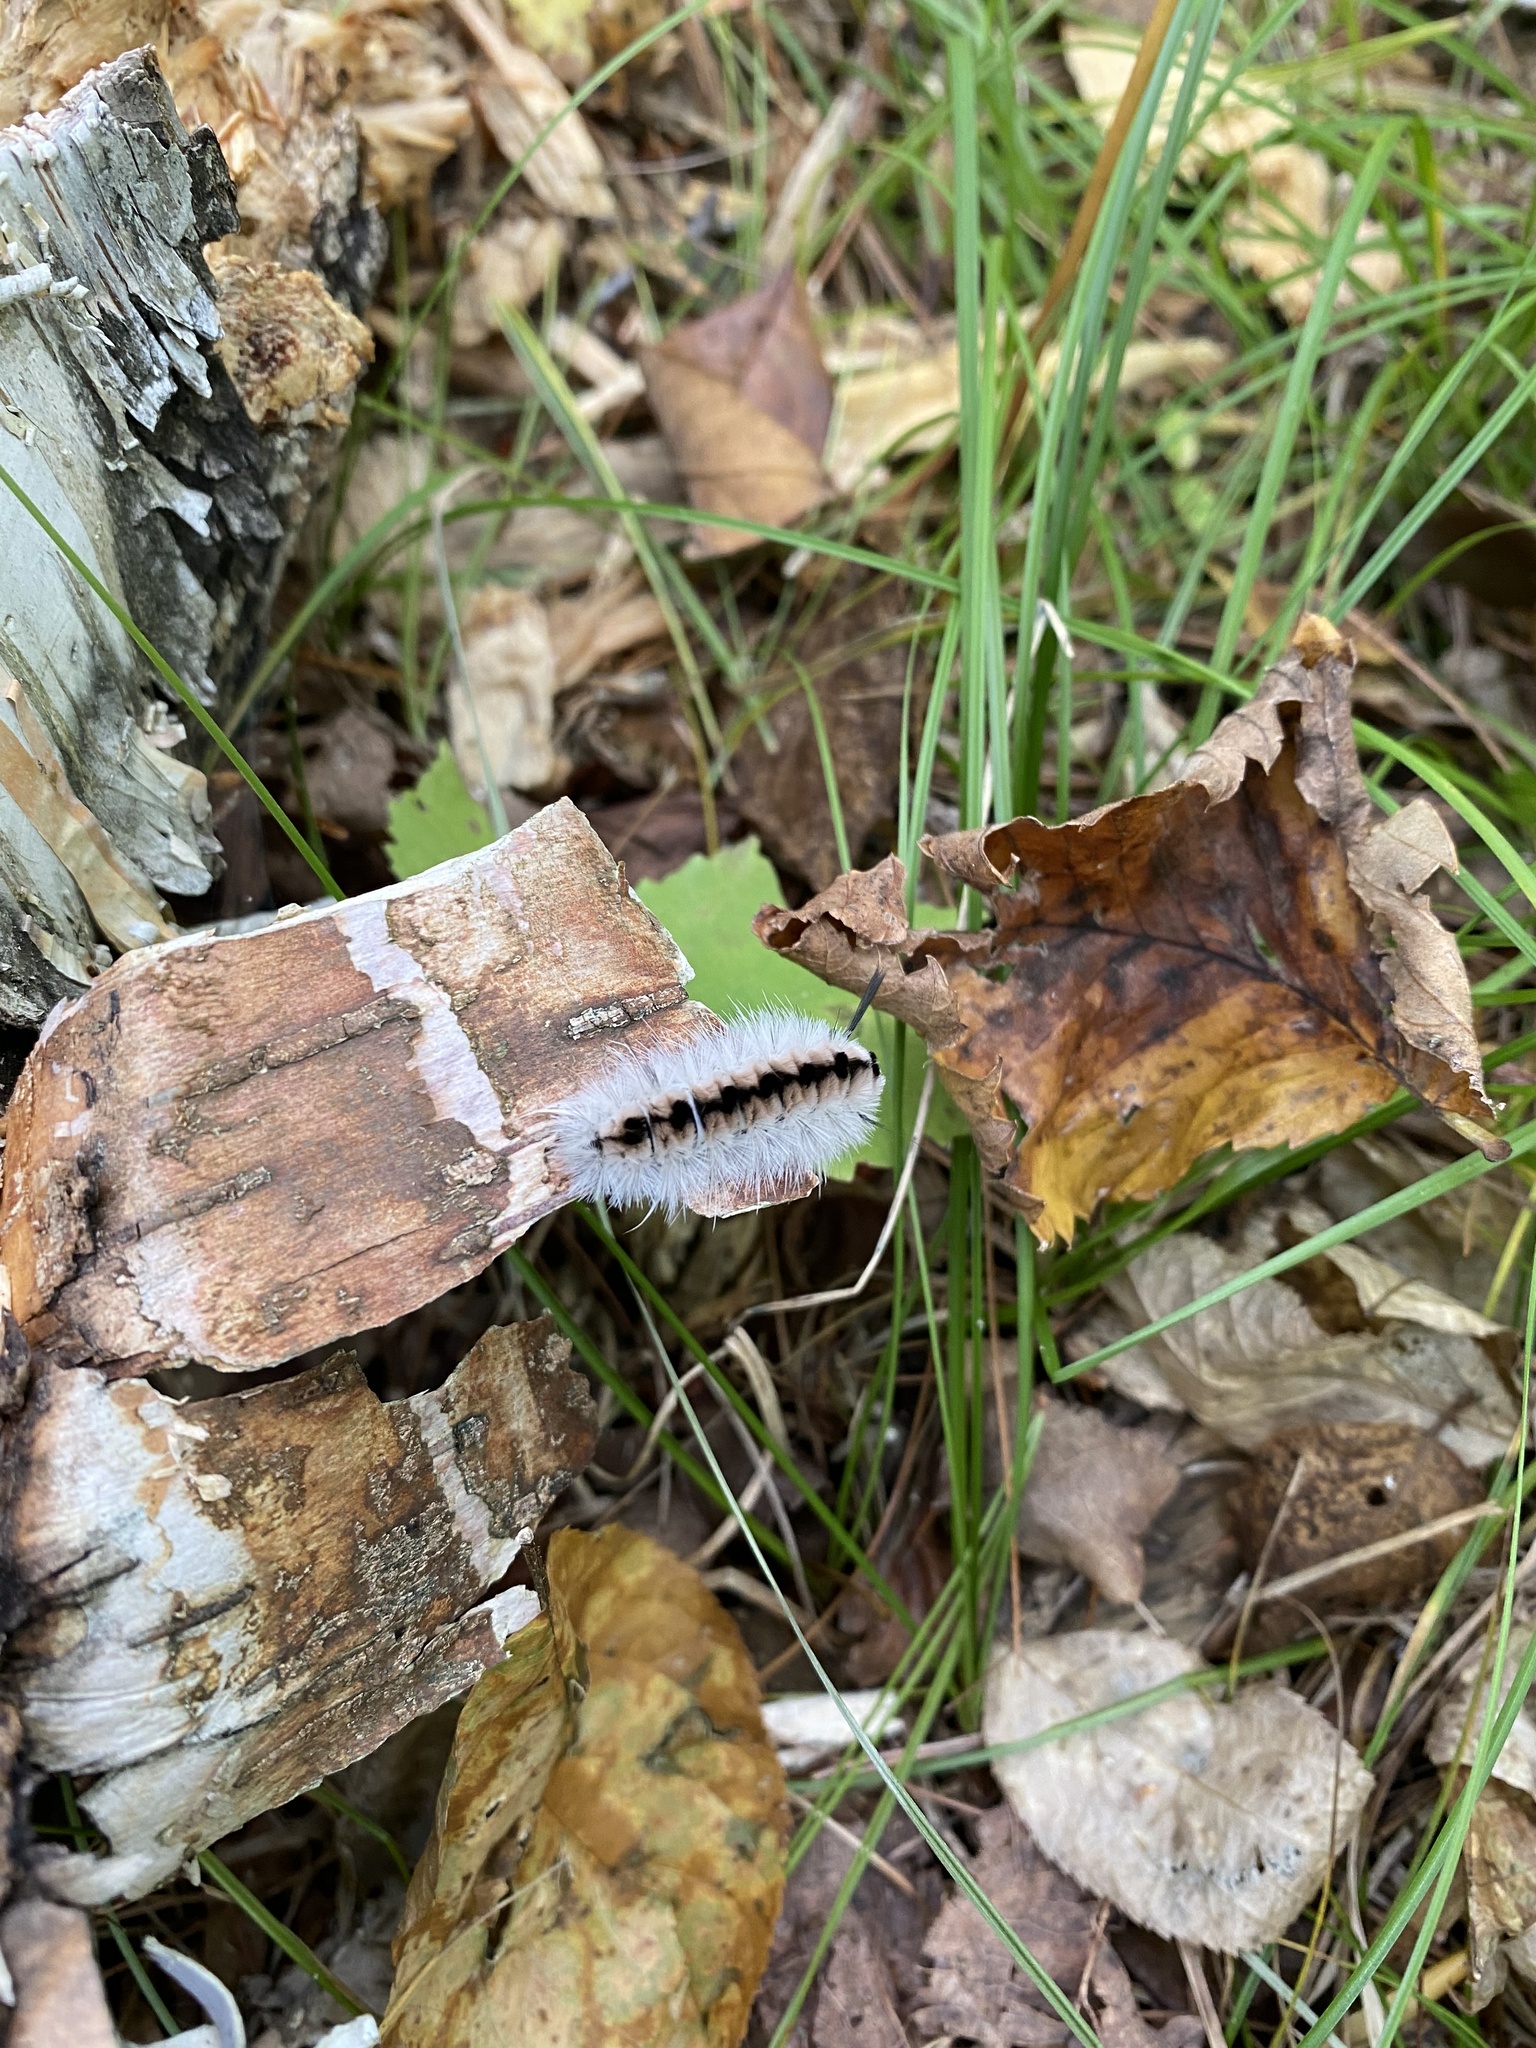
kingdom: Animalia
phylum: Arthropoda
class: Insecta
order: Lepidoptera
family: Erebidae
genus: Lophocampa
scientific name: Lophocampa caryae
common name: Hickory tussock moth
